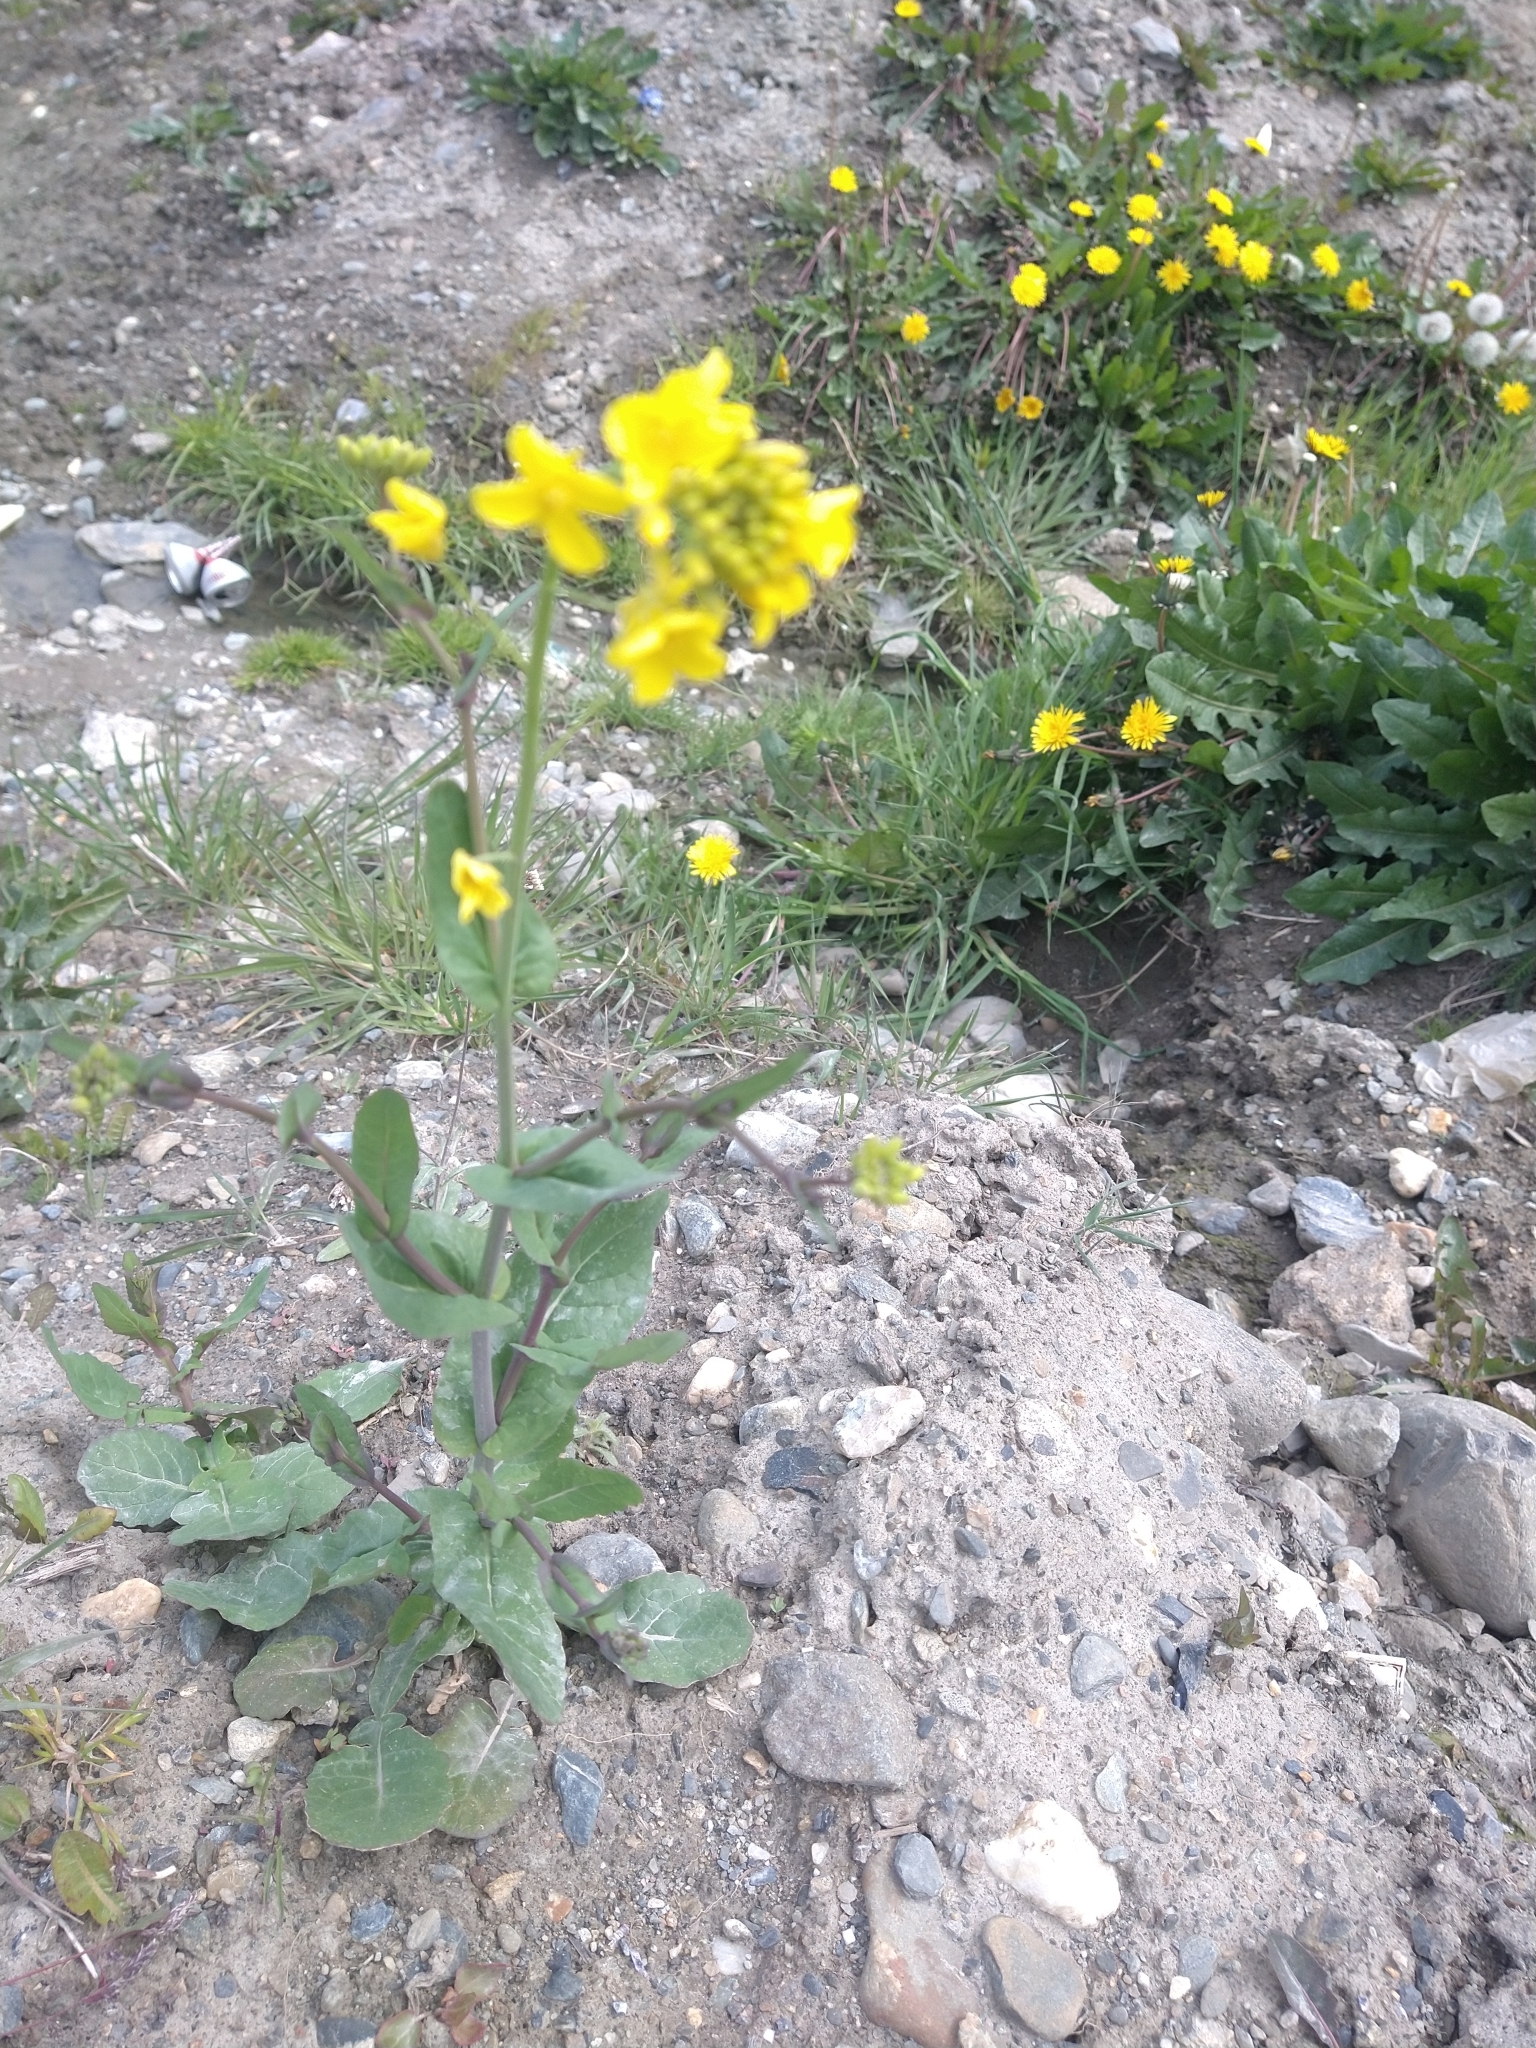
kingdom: Plantae
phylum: Tracheophyta
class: Magnoliopsida
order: Brassicales
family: Brassicaceae
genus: Brassica
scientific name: Brassica rapa
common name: Field mustard
